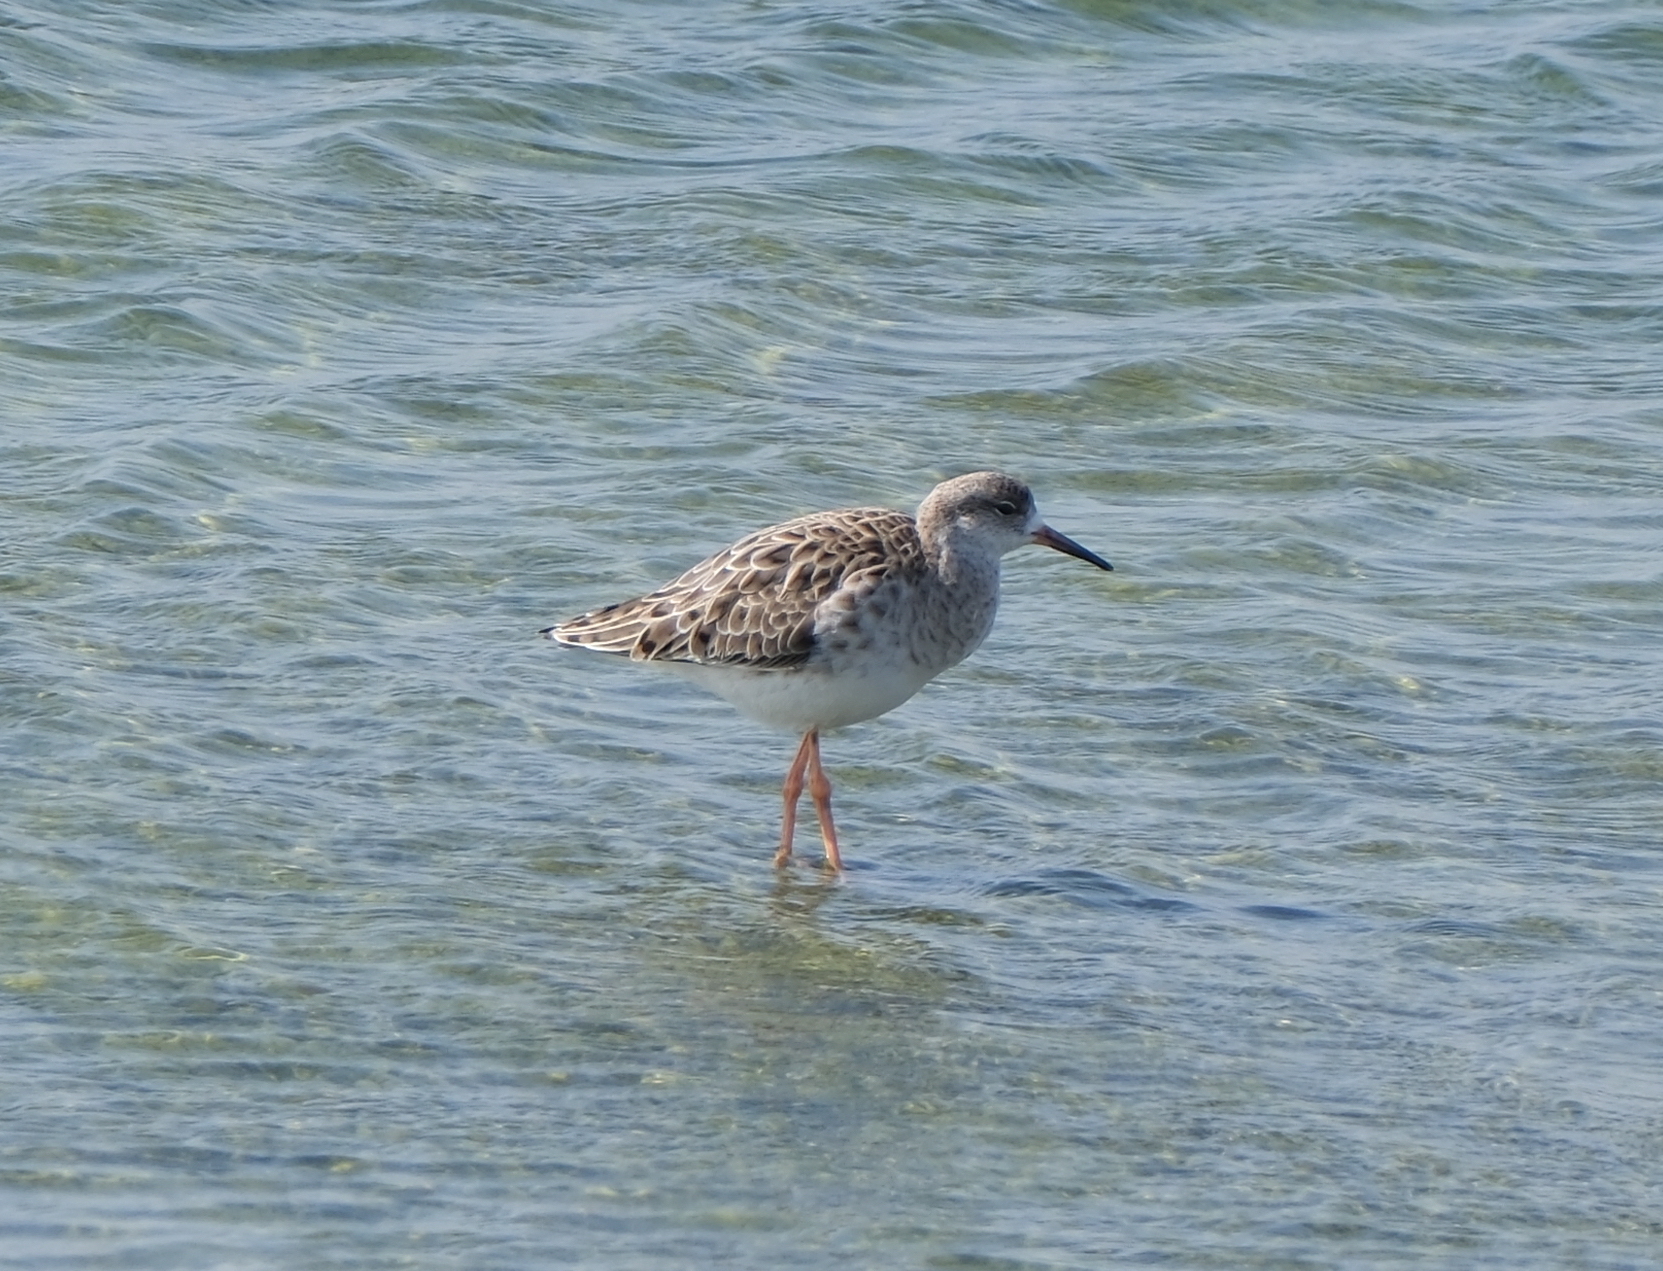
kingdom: Animalia
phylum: Chordata
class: Aves
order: Charadriiformes
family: Scolopacidae
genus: Calidris
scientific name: Calidris pugnax
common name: Ruff
